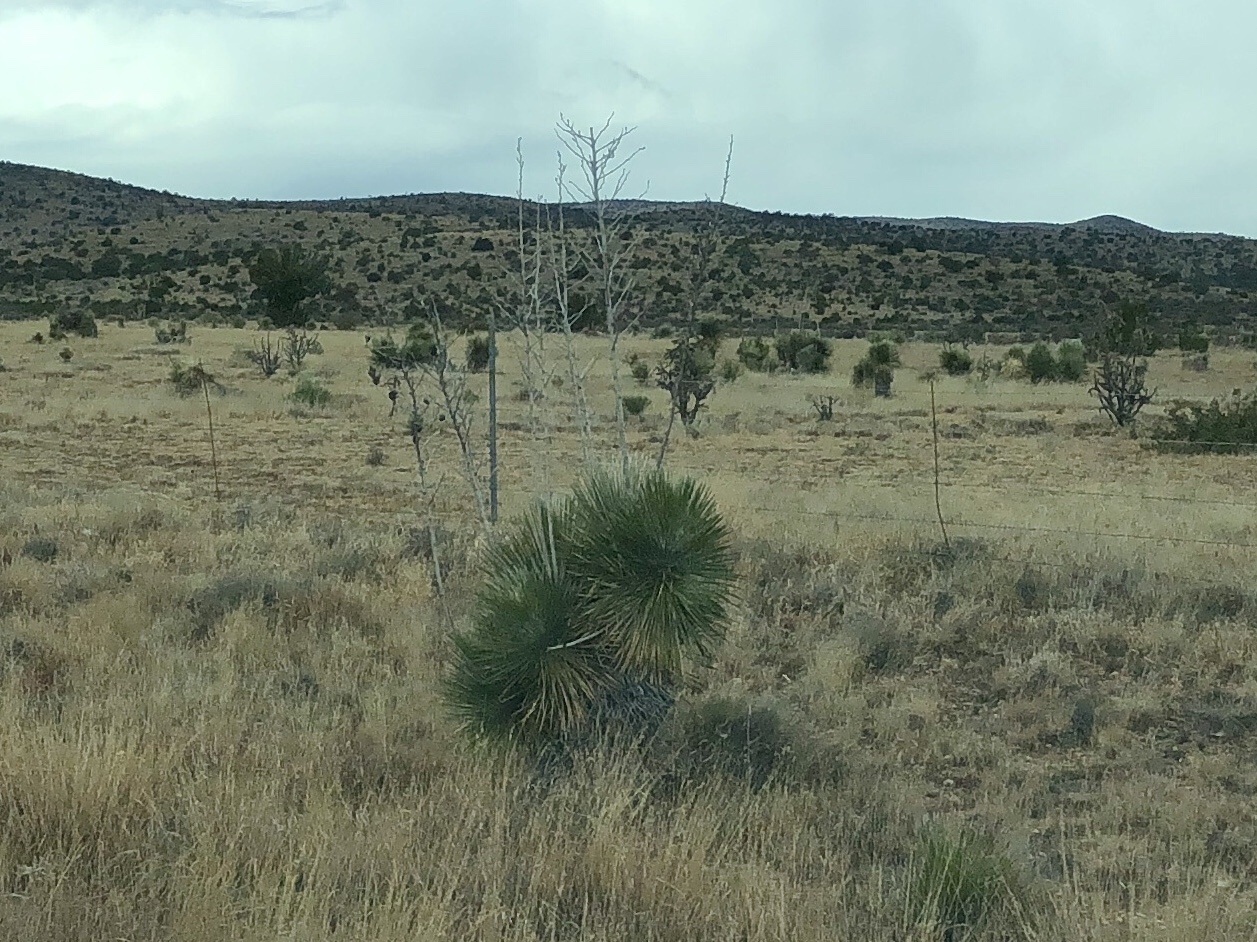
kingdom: Plantae
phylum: Tracheophyta
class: Liliopsida
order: Asparagales
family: Asparagaceae
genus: Yucca
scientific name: Yucca elata
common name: Palmella
